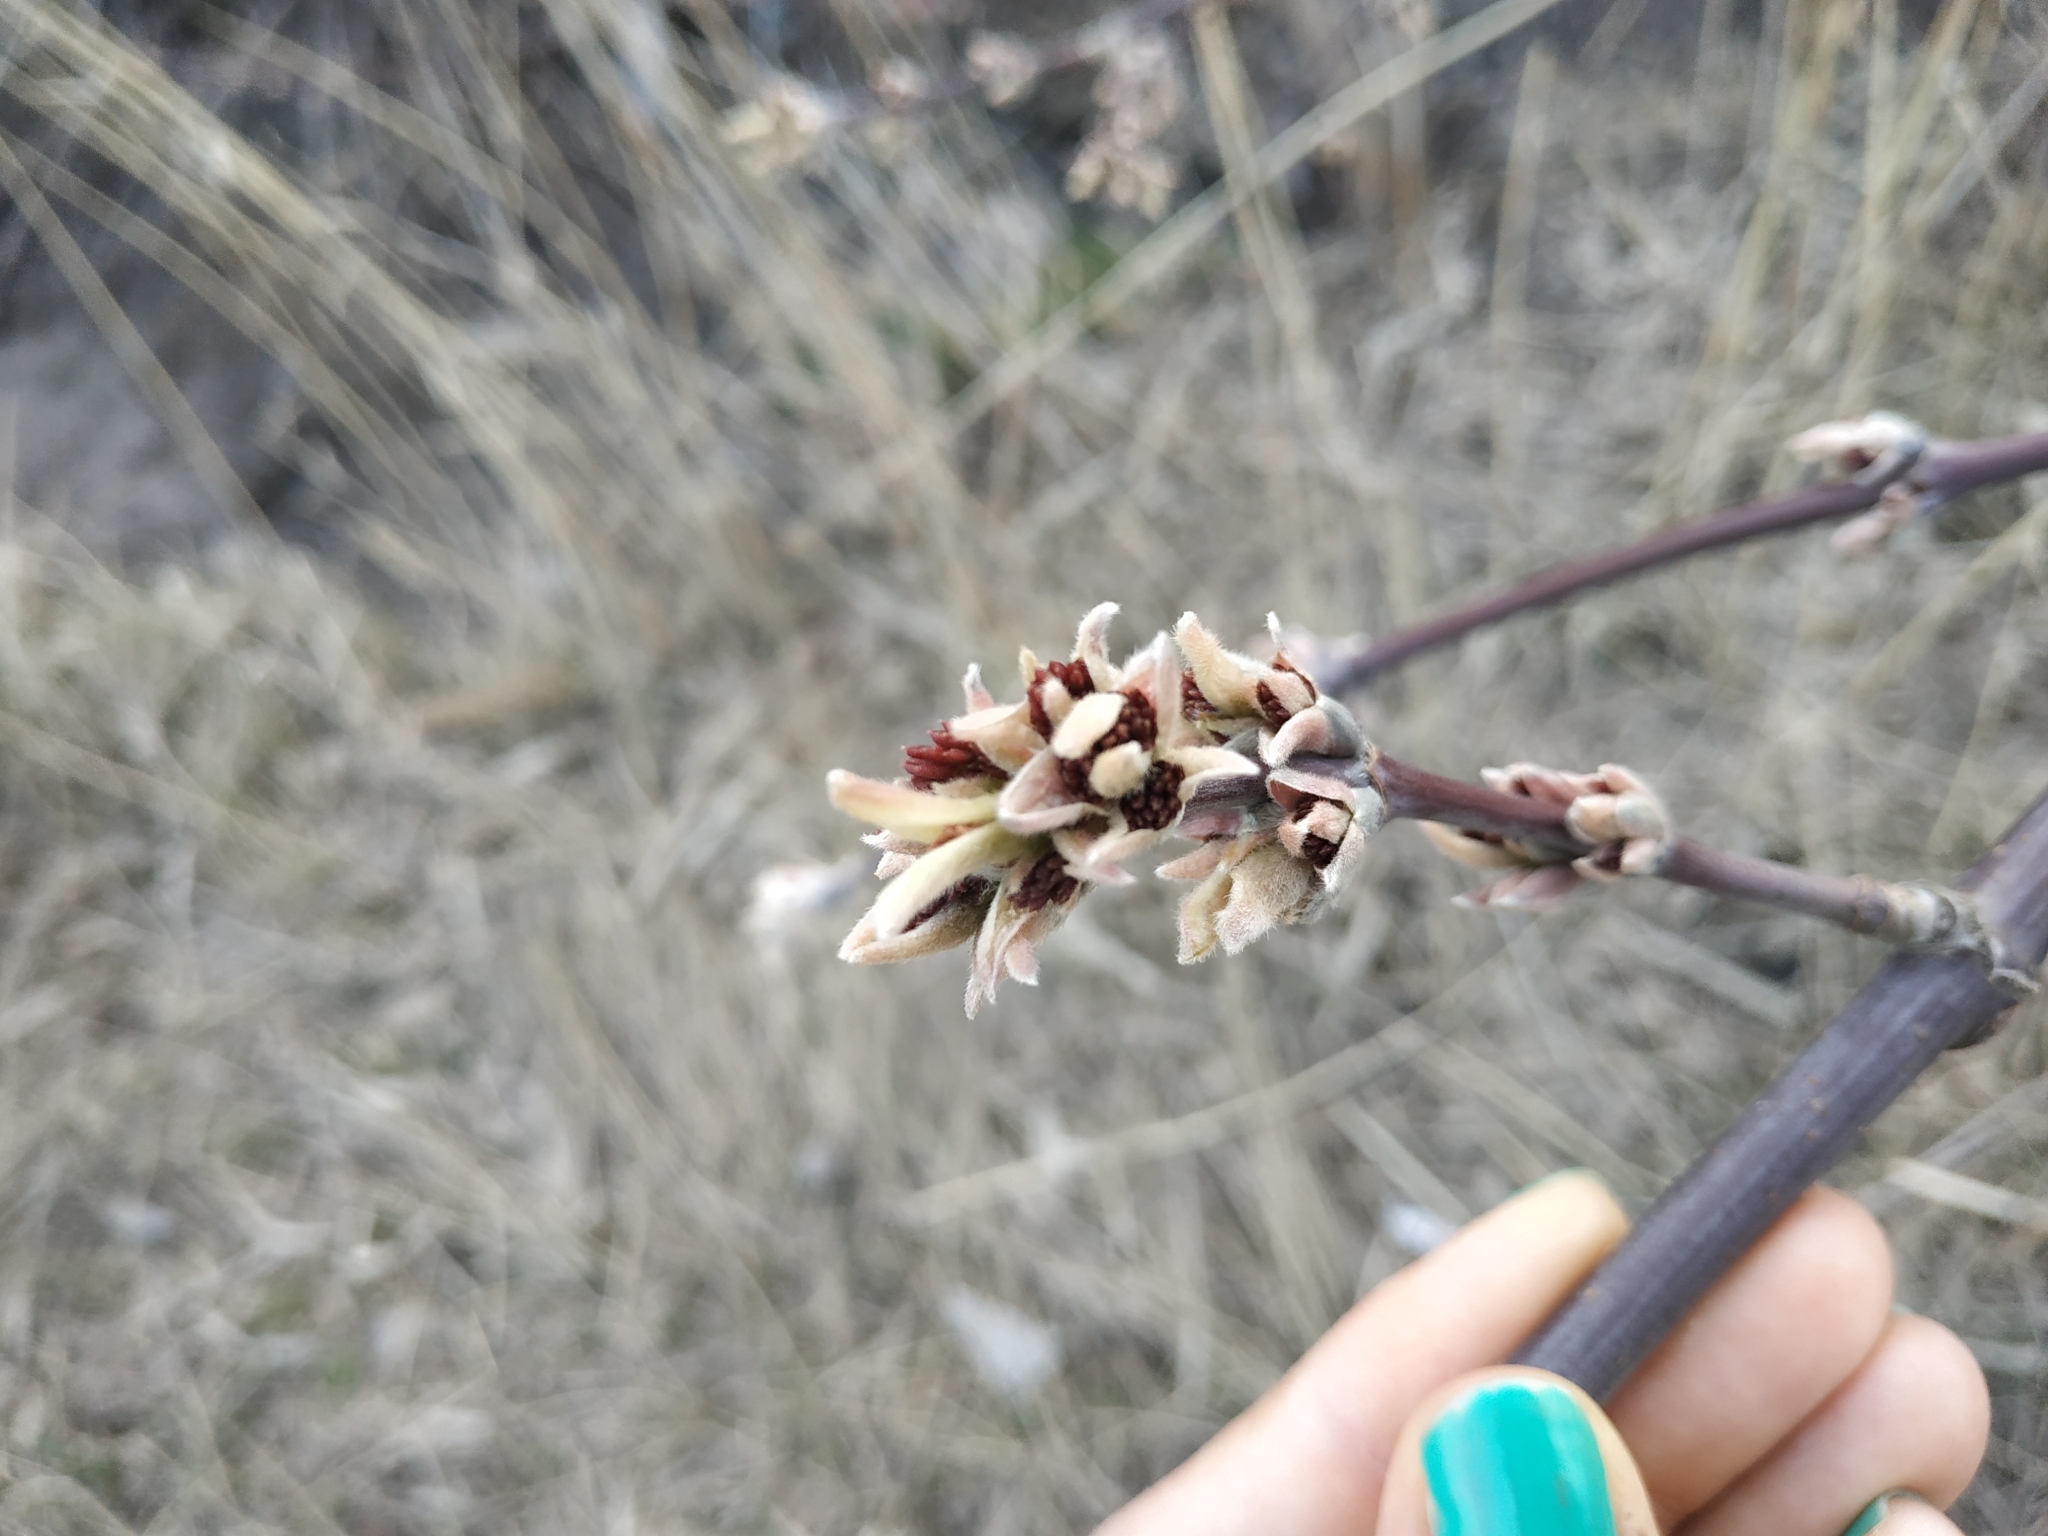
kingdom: Plantae
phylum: Tracheophyta
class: Magnoliopsida
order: Sapindales
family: Sapindaceae
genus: Acer
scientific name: Acer negundo
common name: Ashleaf maple
